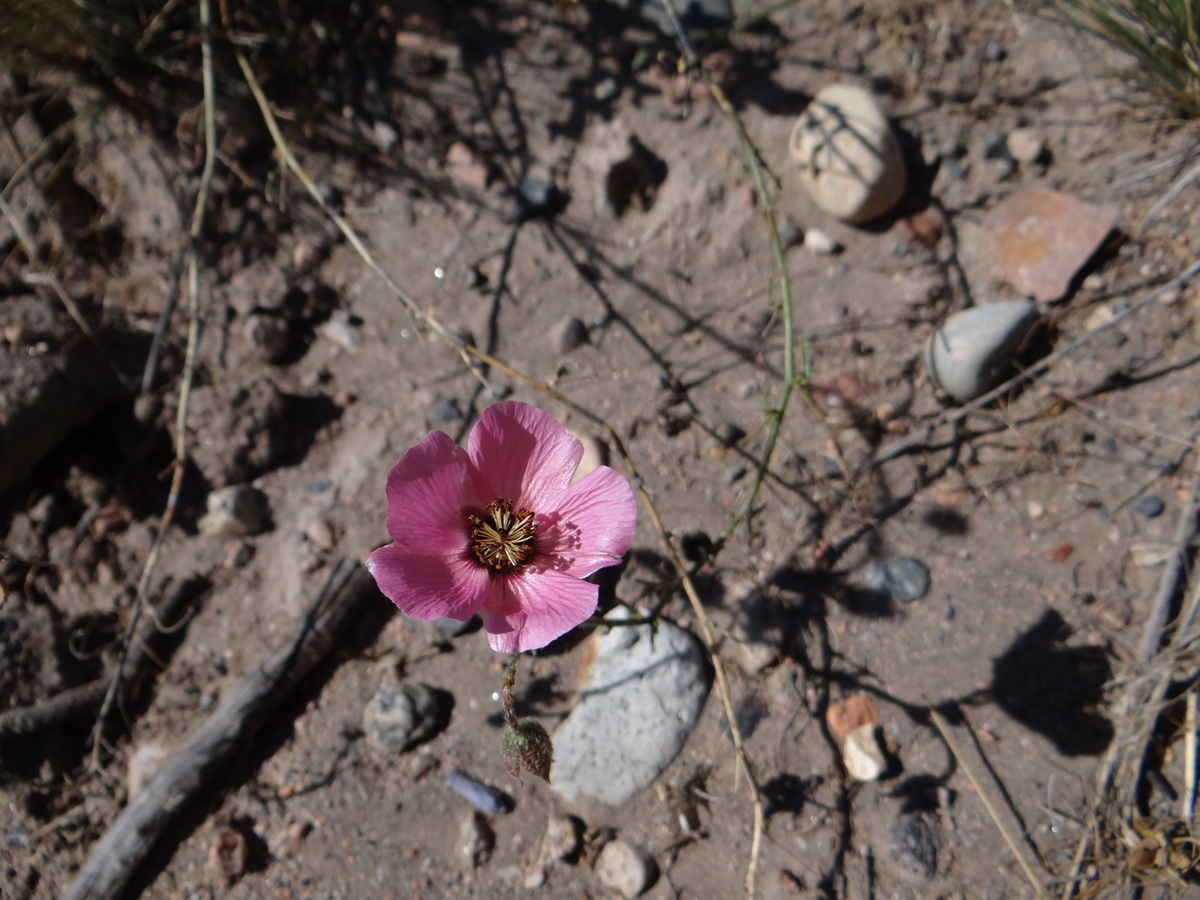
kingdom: Plantae
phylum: Tracheophyta
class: Magnoliopsida
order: Malvales
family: Malvaceae
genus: Lecanophora
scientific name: Lecanophora heterophylla
